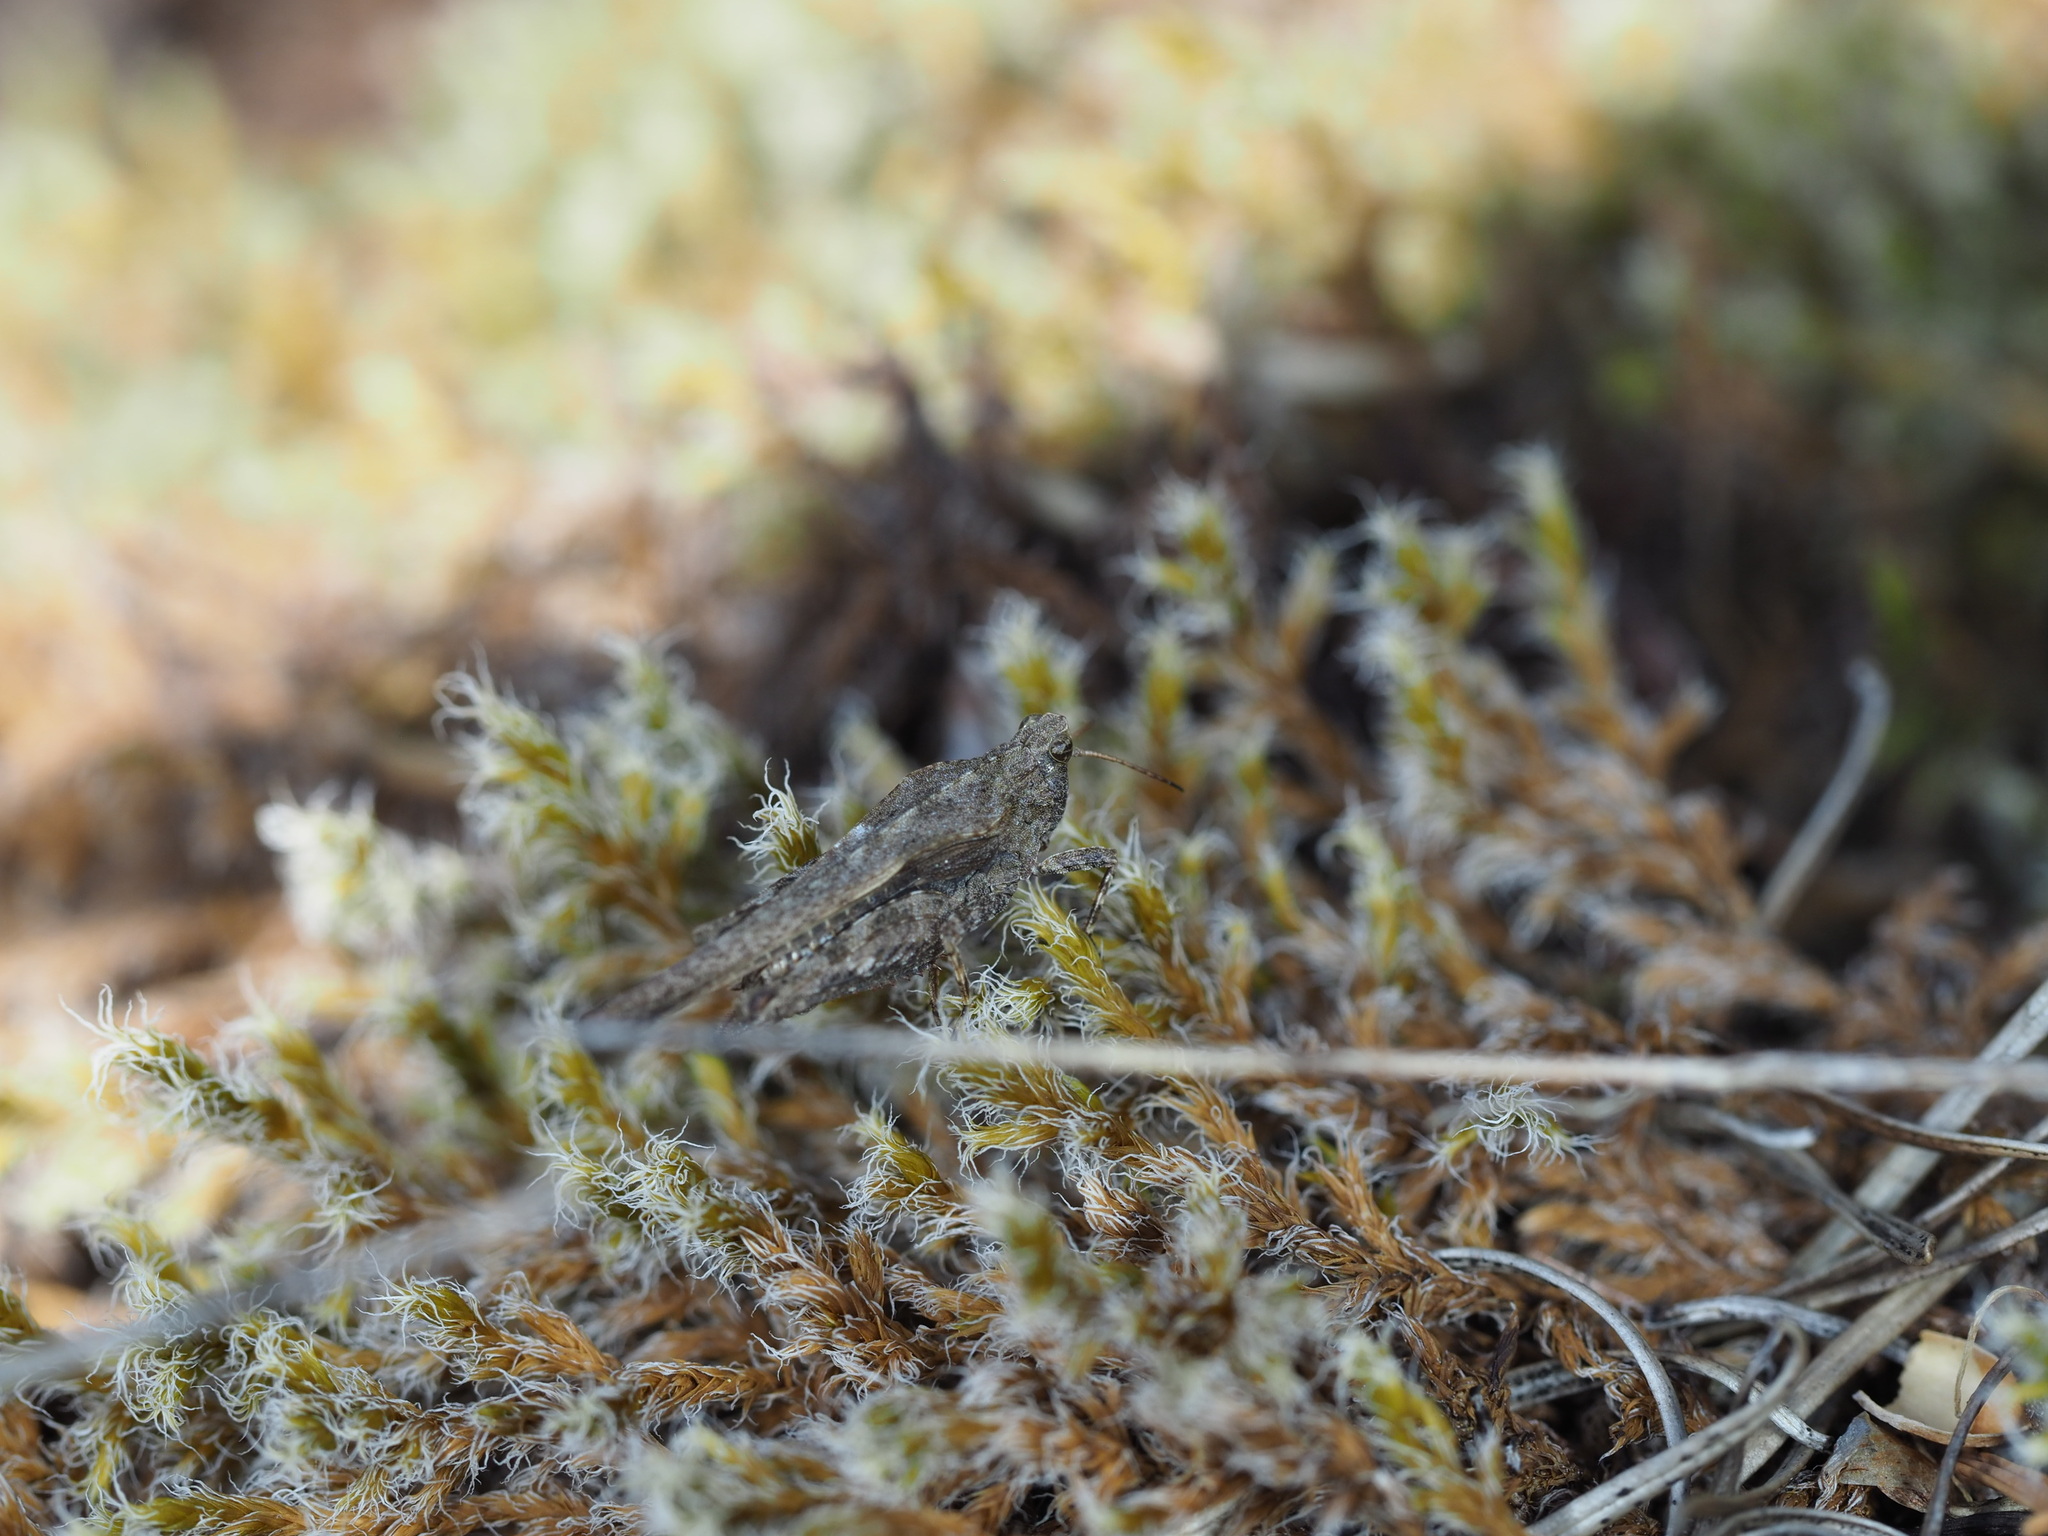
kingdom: Animalia
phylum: Arthropoda
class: Insecta
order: Orthoptera
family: Tetrigidae
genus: Tetrix
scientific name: Tetrix subulata
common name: Slender ground-hopper
